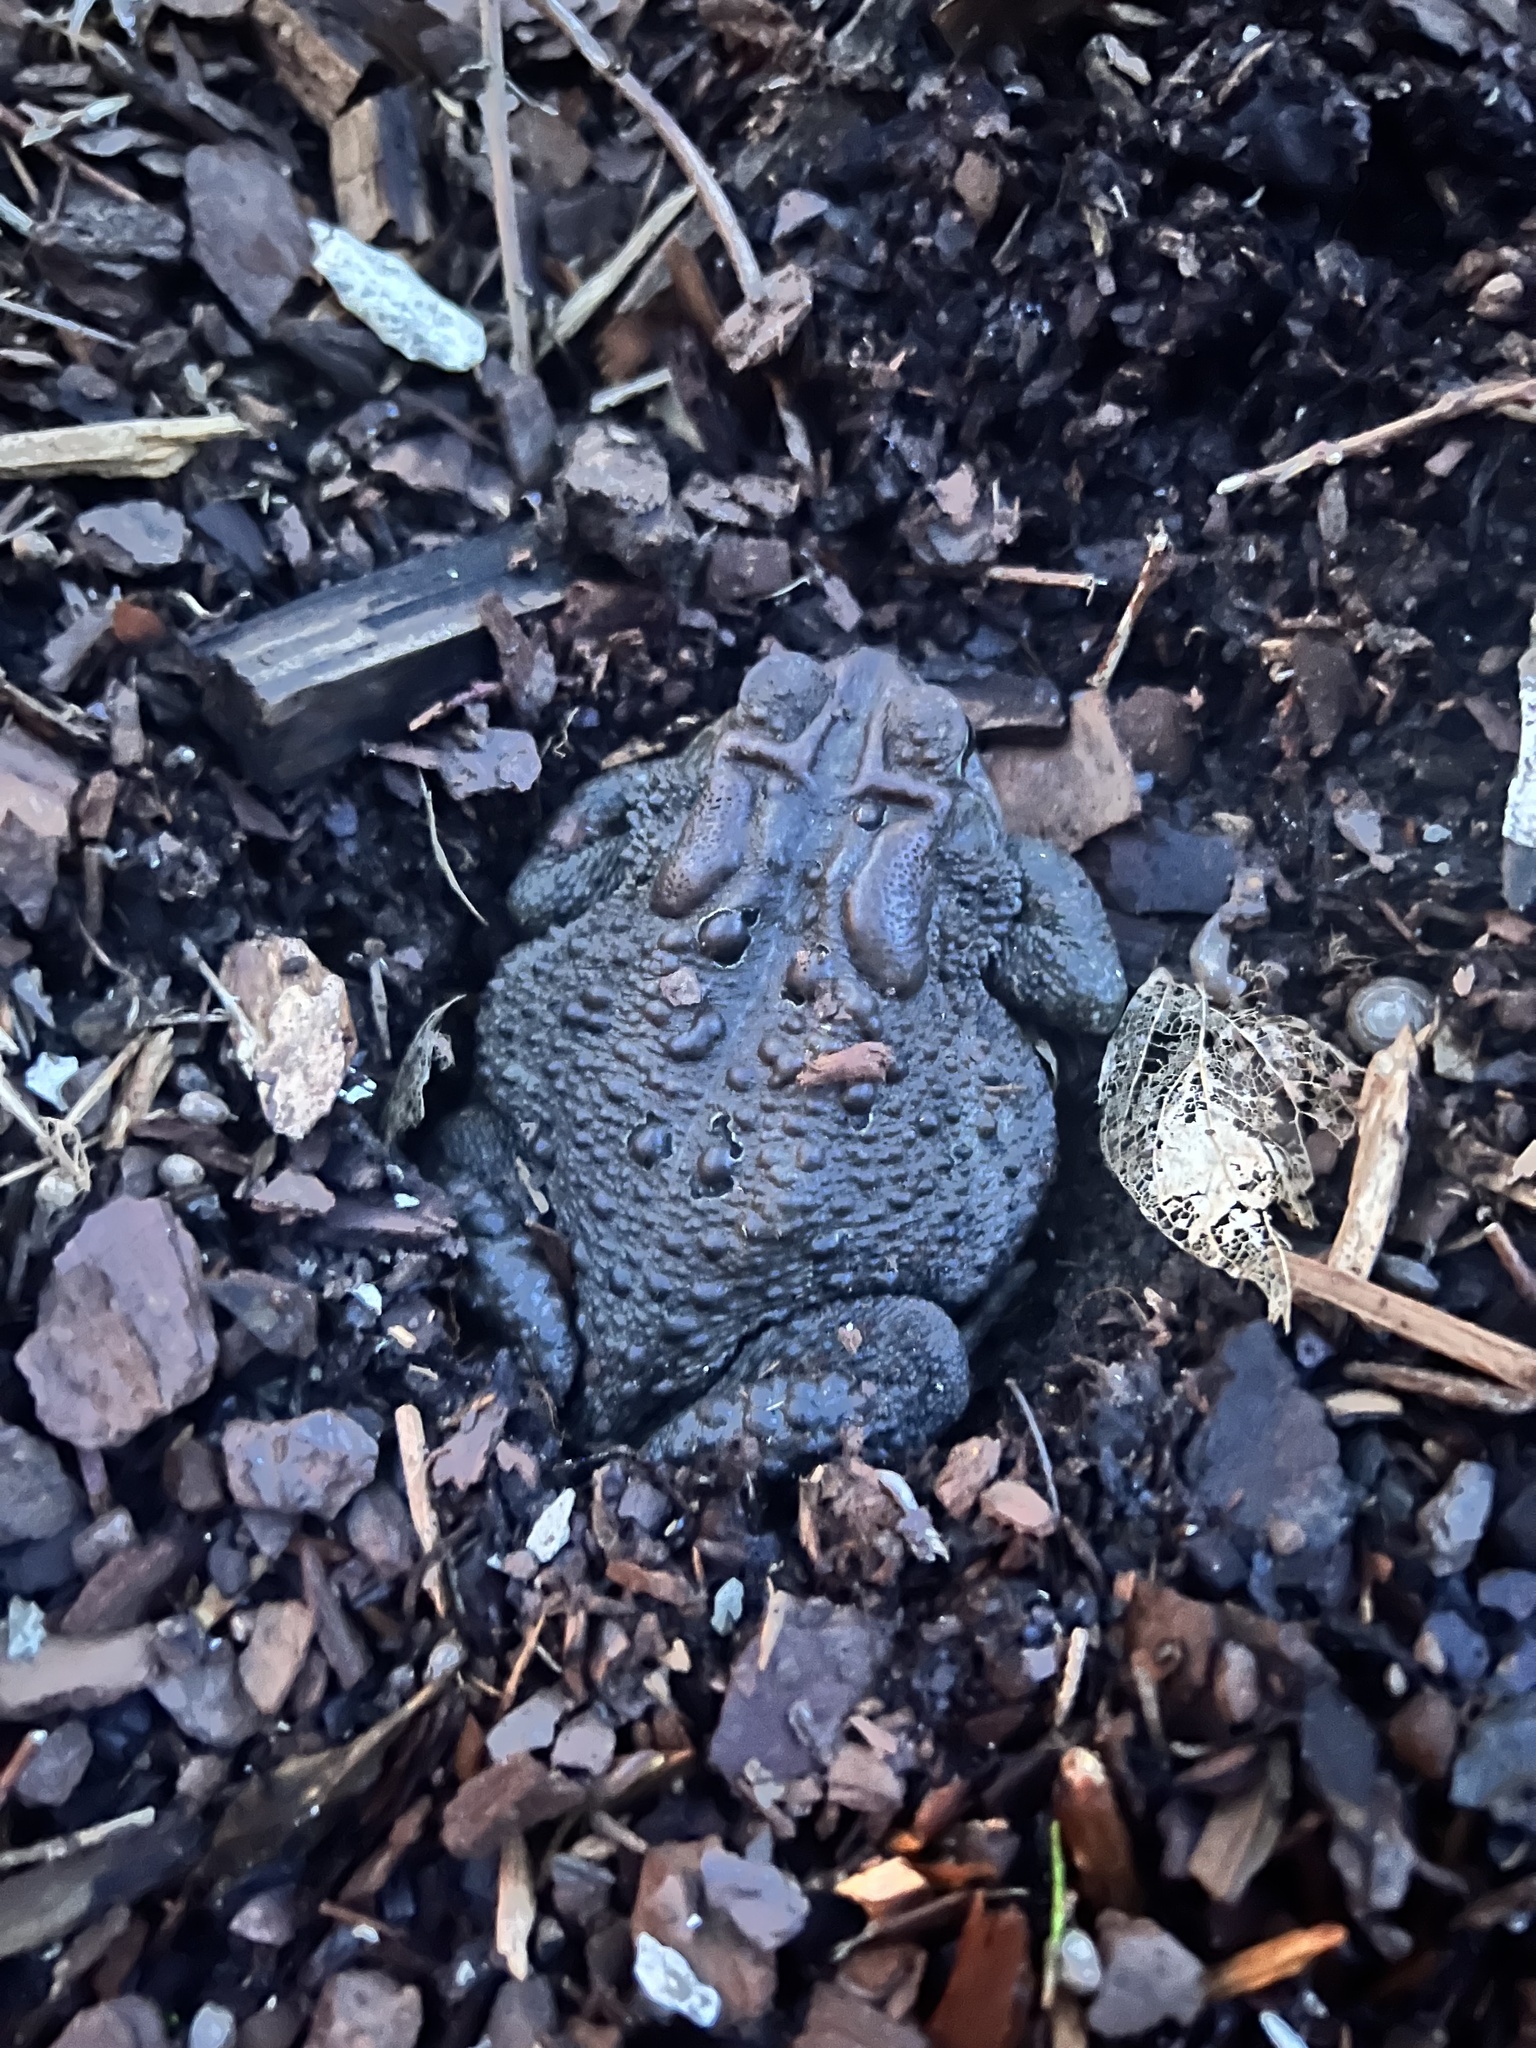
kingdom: Animalia
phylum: Chordata
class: Amphibia
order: Anura
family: Bufonidae
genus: Anaxyrus
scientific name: Anaxyrus americanus
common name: American toad
